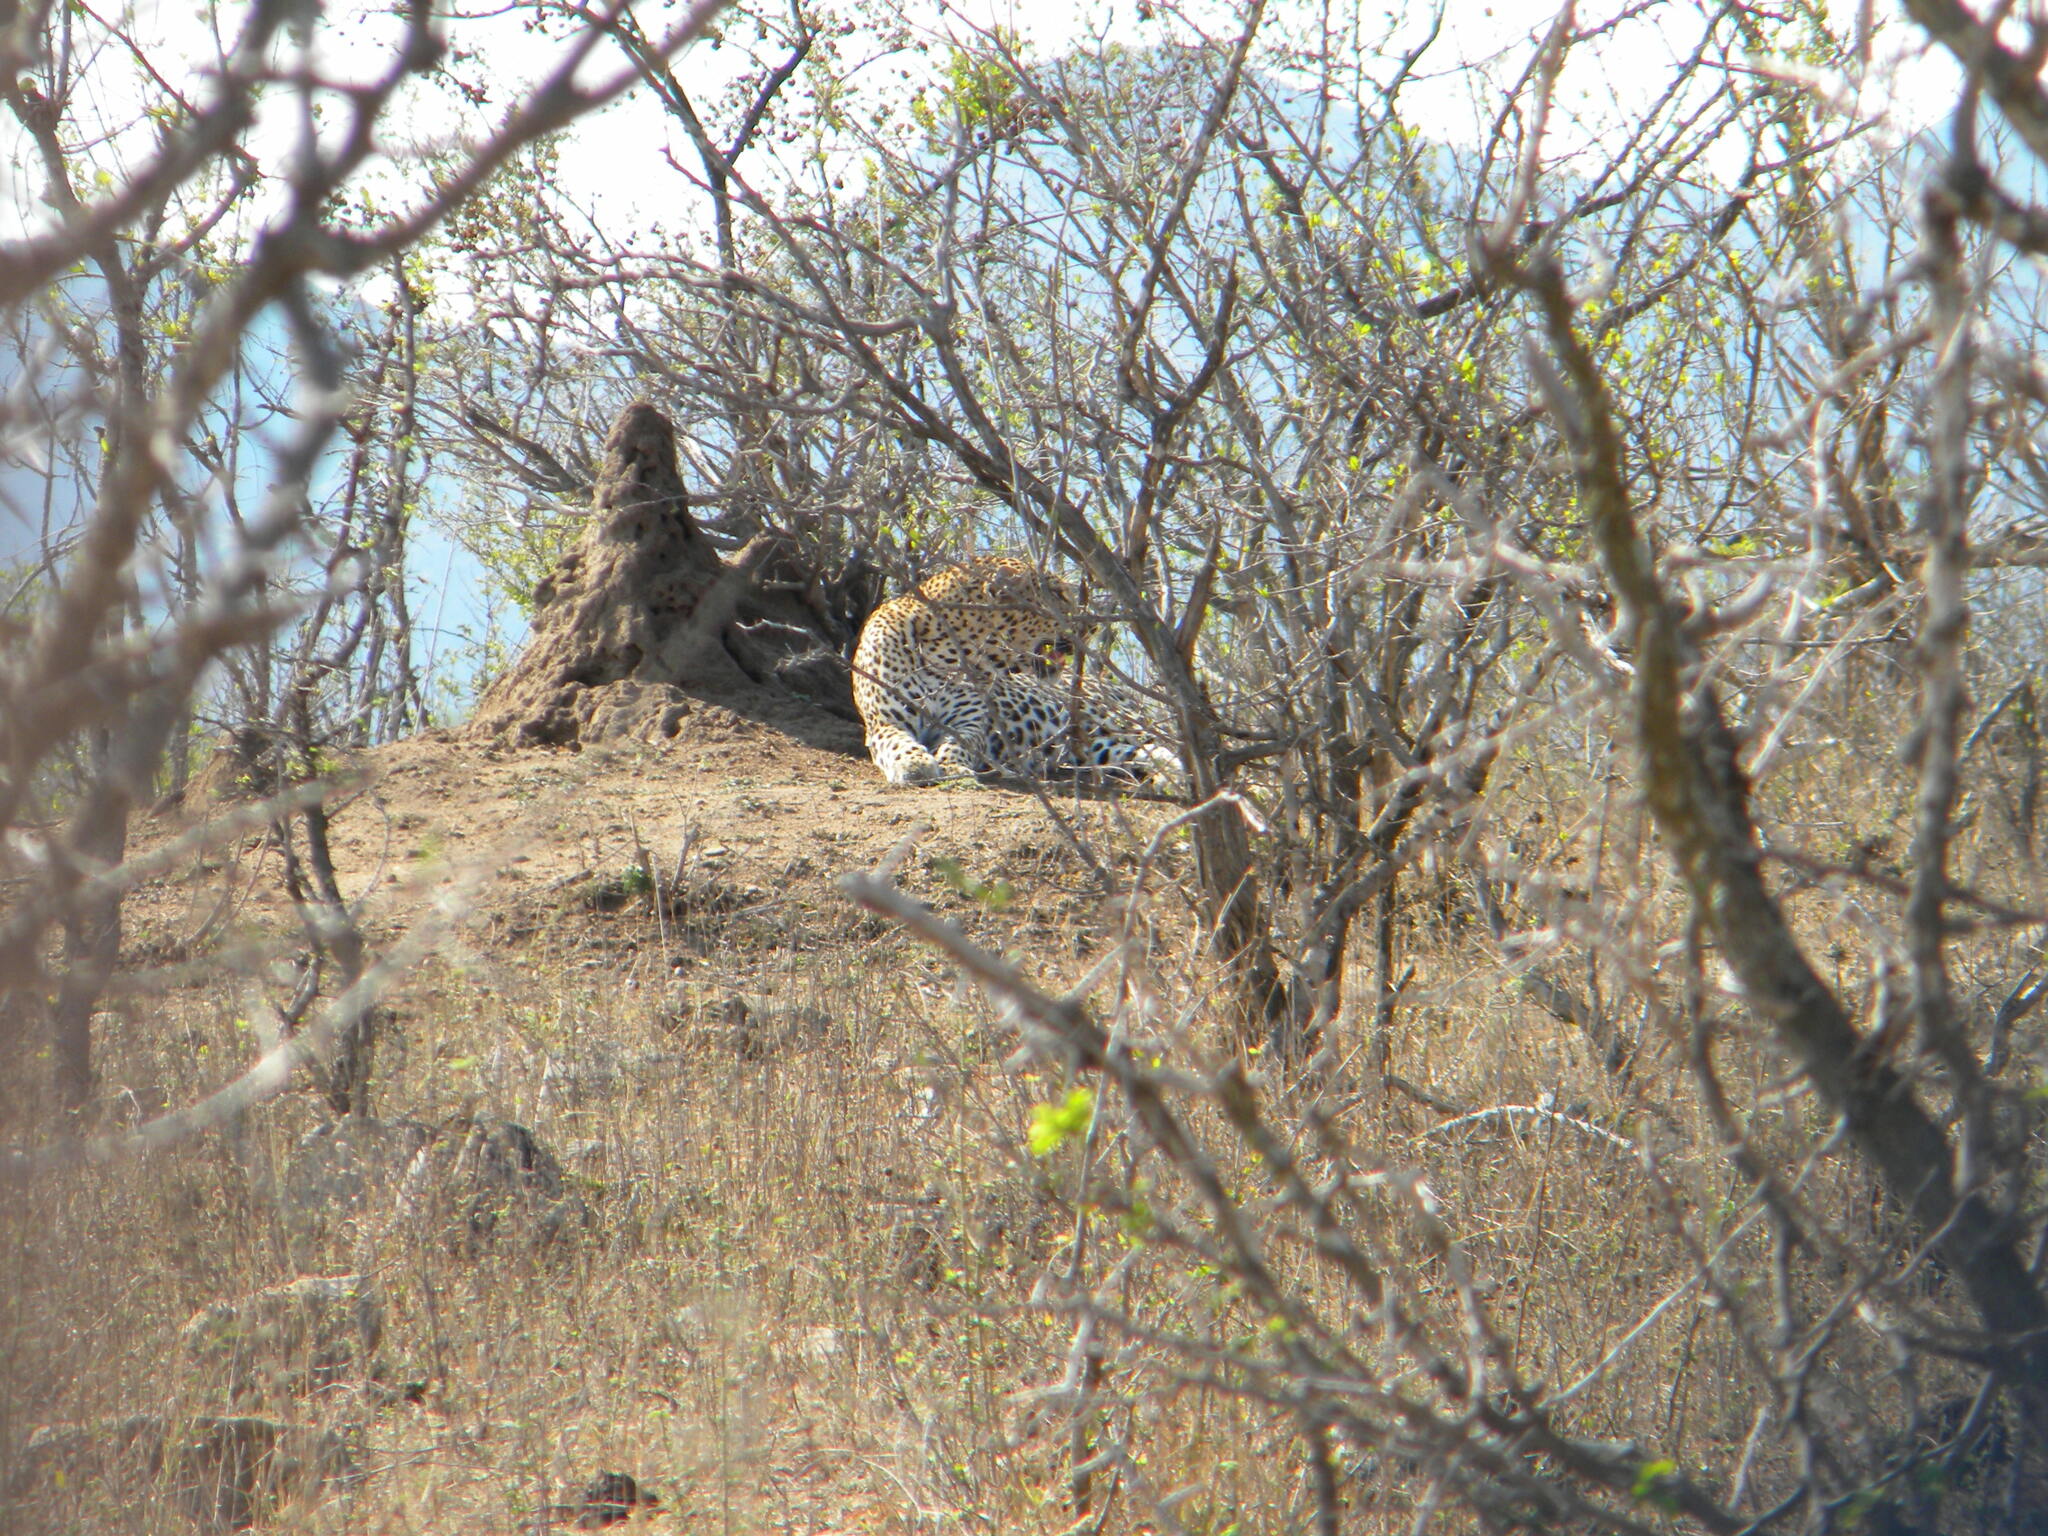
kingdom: Animalia
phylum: Chordata
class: Mammalia
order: Carnivora
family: Felidae
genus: Panthera
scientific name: Panthera pardus
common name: Leopard
